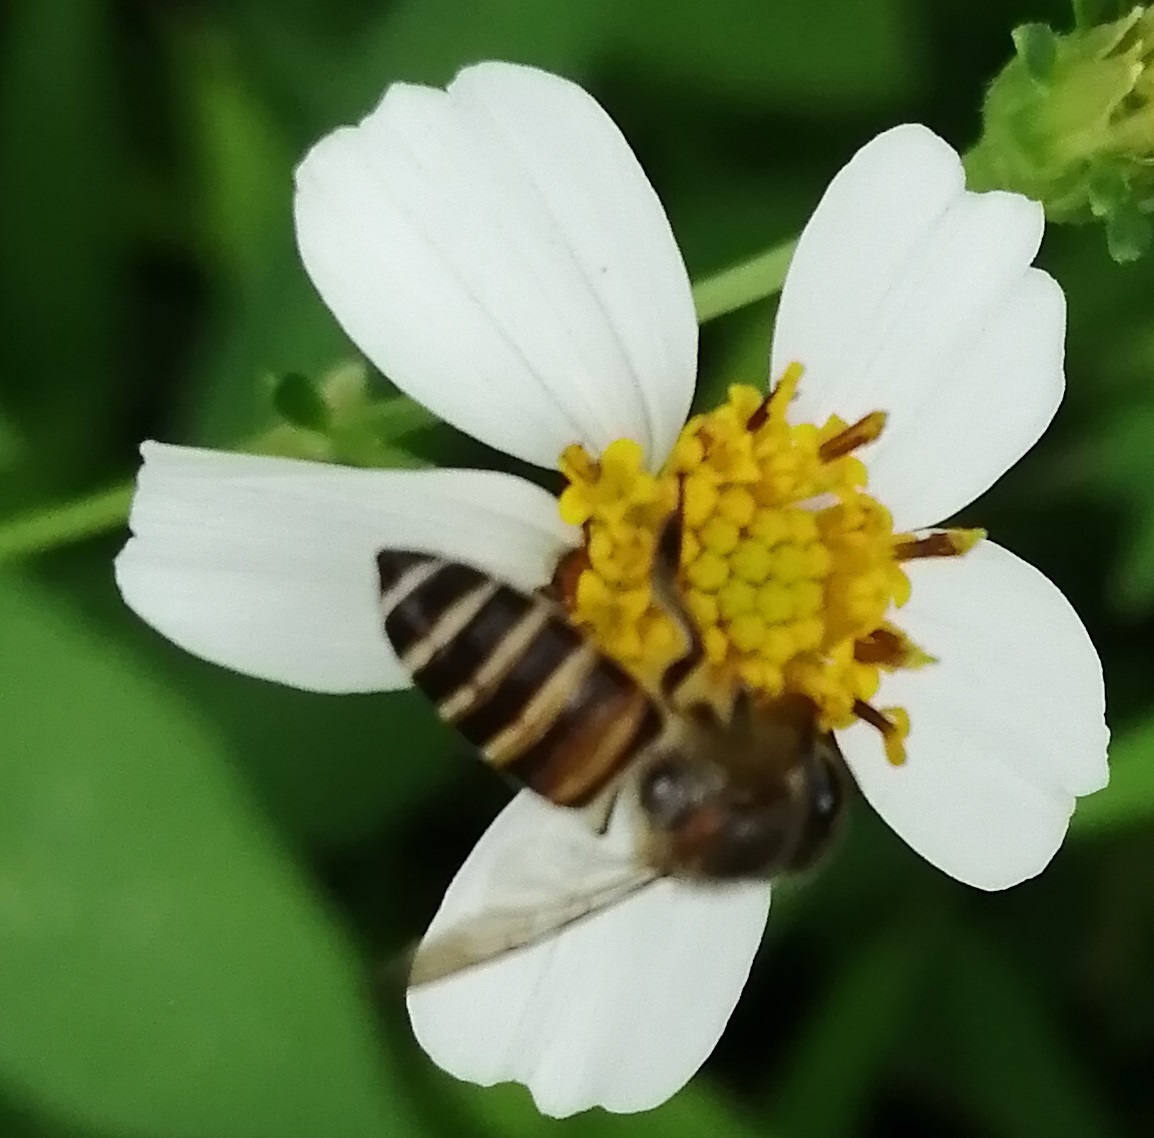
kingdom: Animalia
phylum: Arthropoda
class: Insecta
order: Hymenoptera
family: Apidae
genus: Apis
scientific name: Apis cerana
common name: Honey bee
